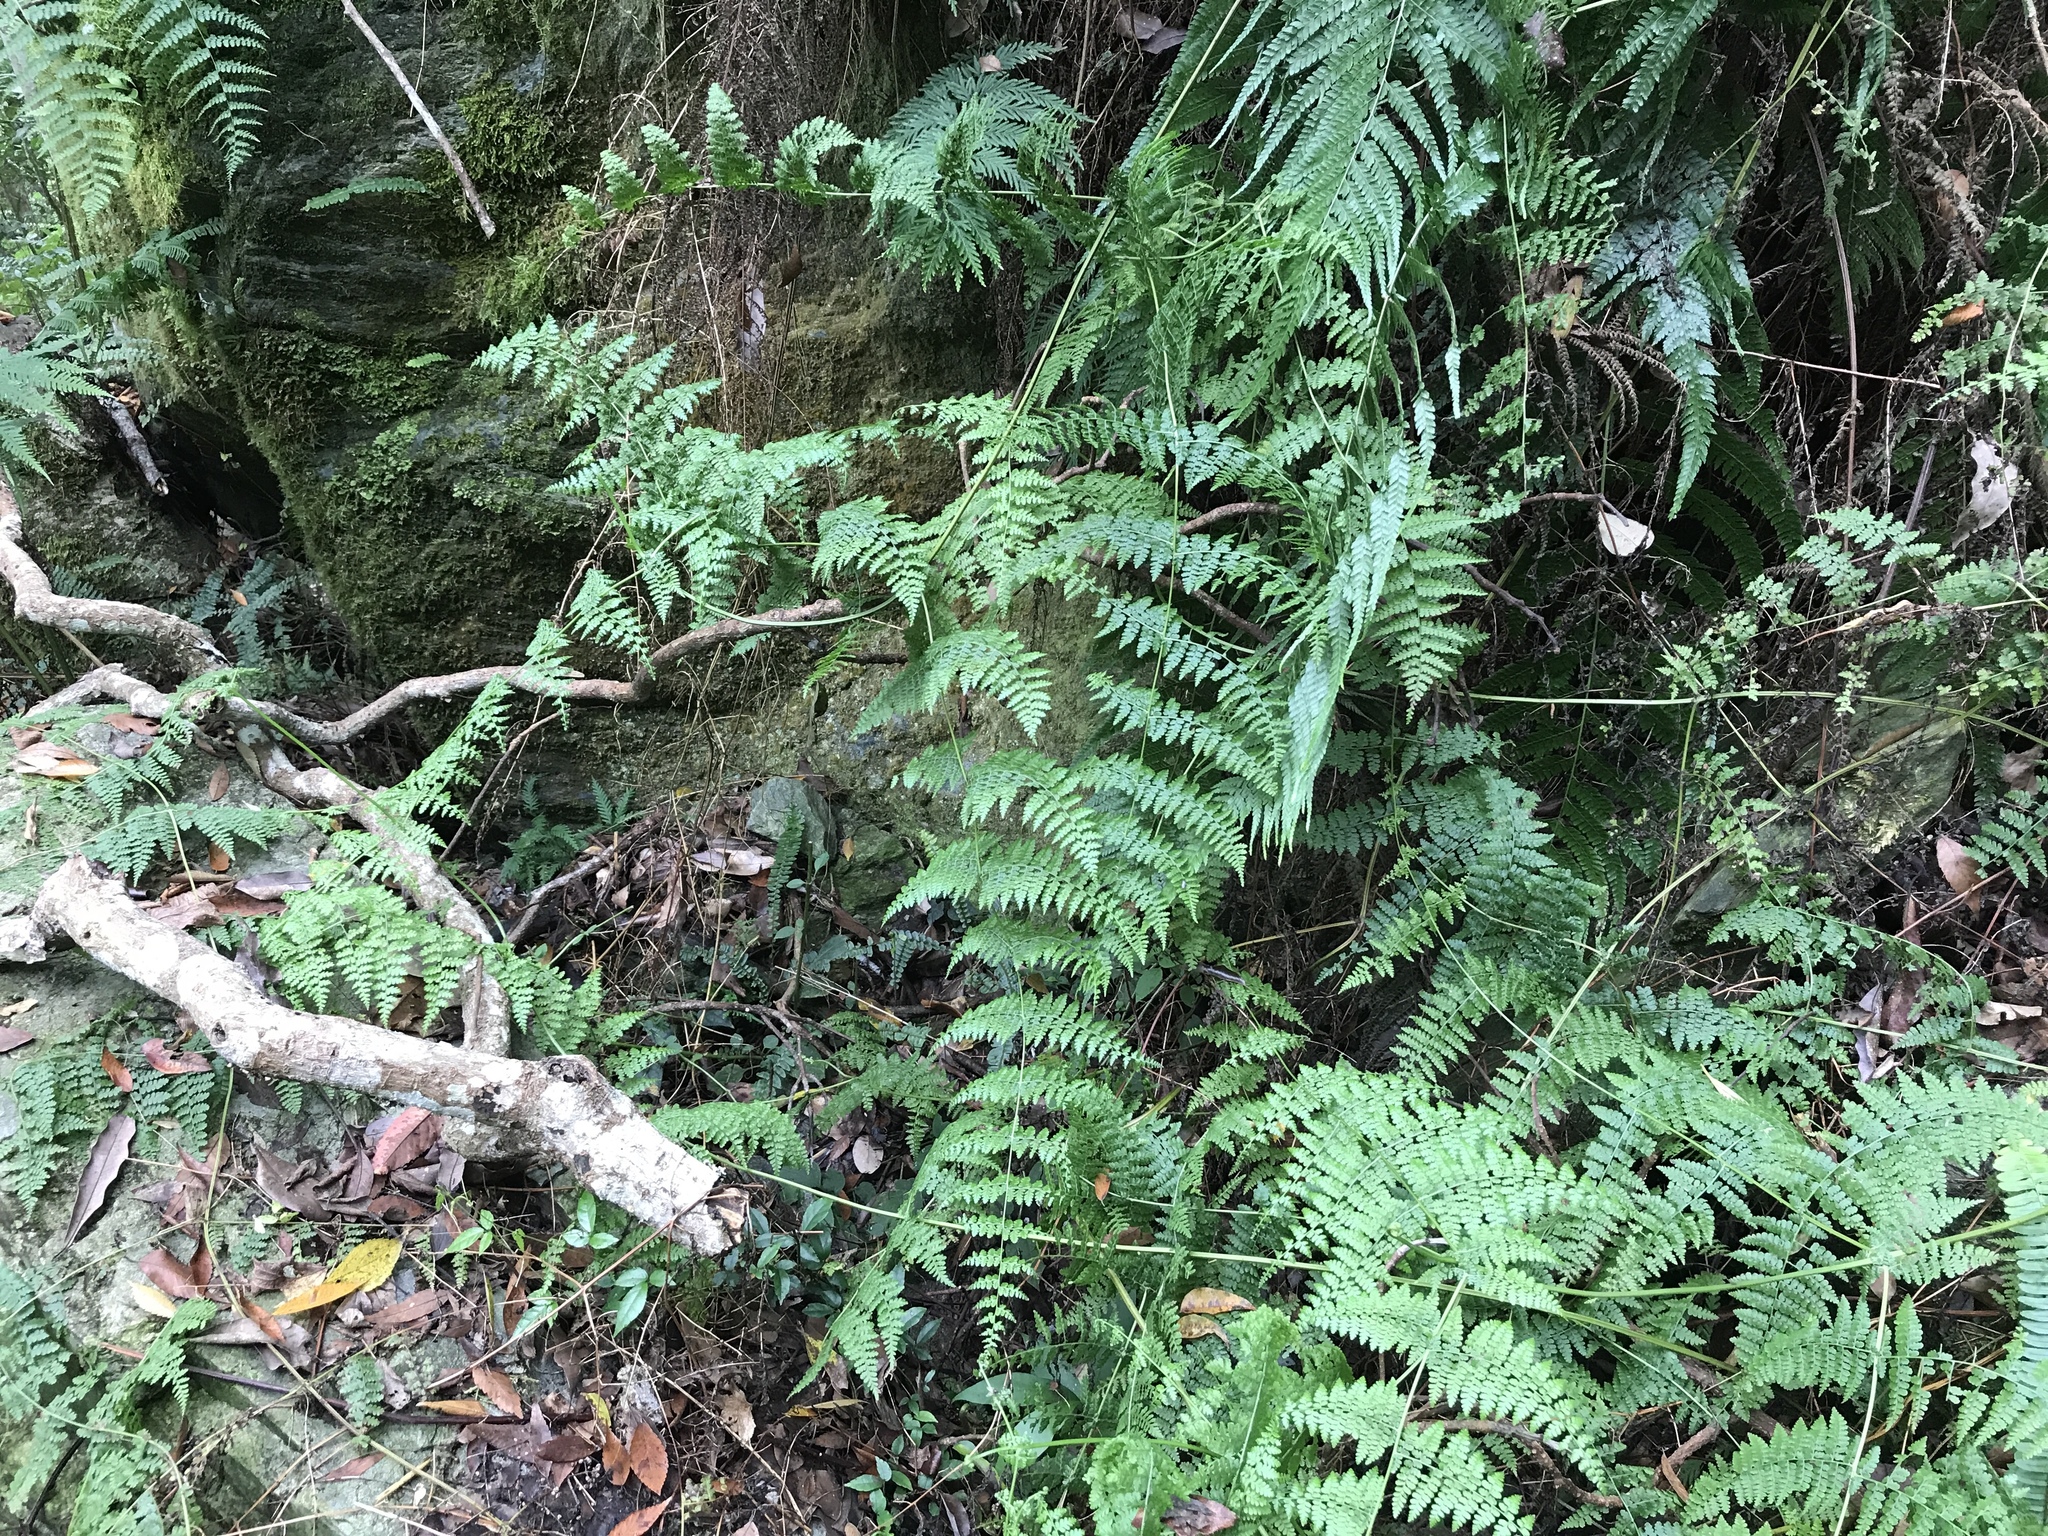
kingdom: Plantae
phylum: Tracheophyta
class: Polypodiopsida
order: Polypodiales
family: Dennstaedtiaceae
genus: Dennstaedtia
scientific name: Dennstaedtia scandens
